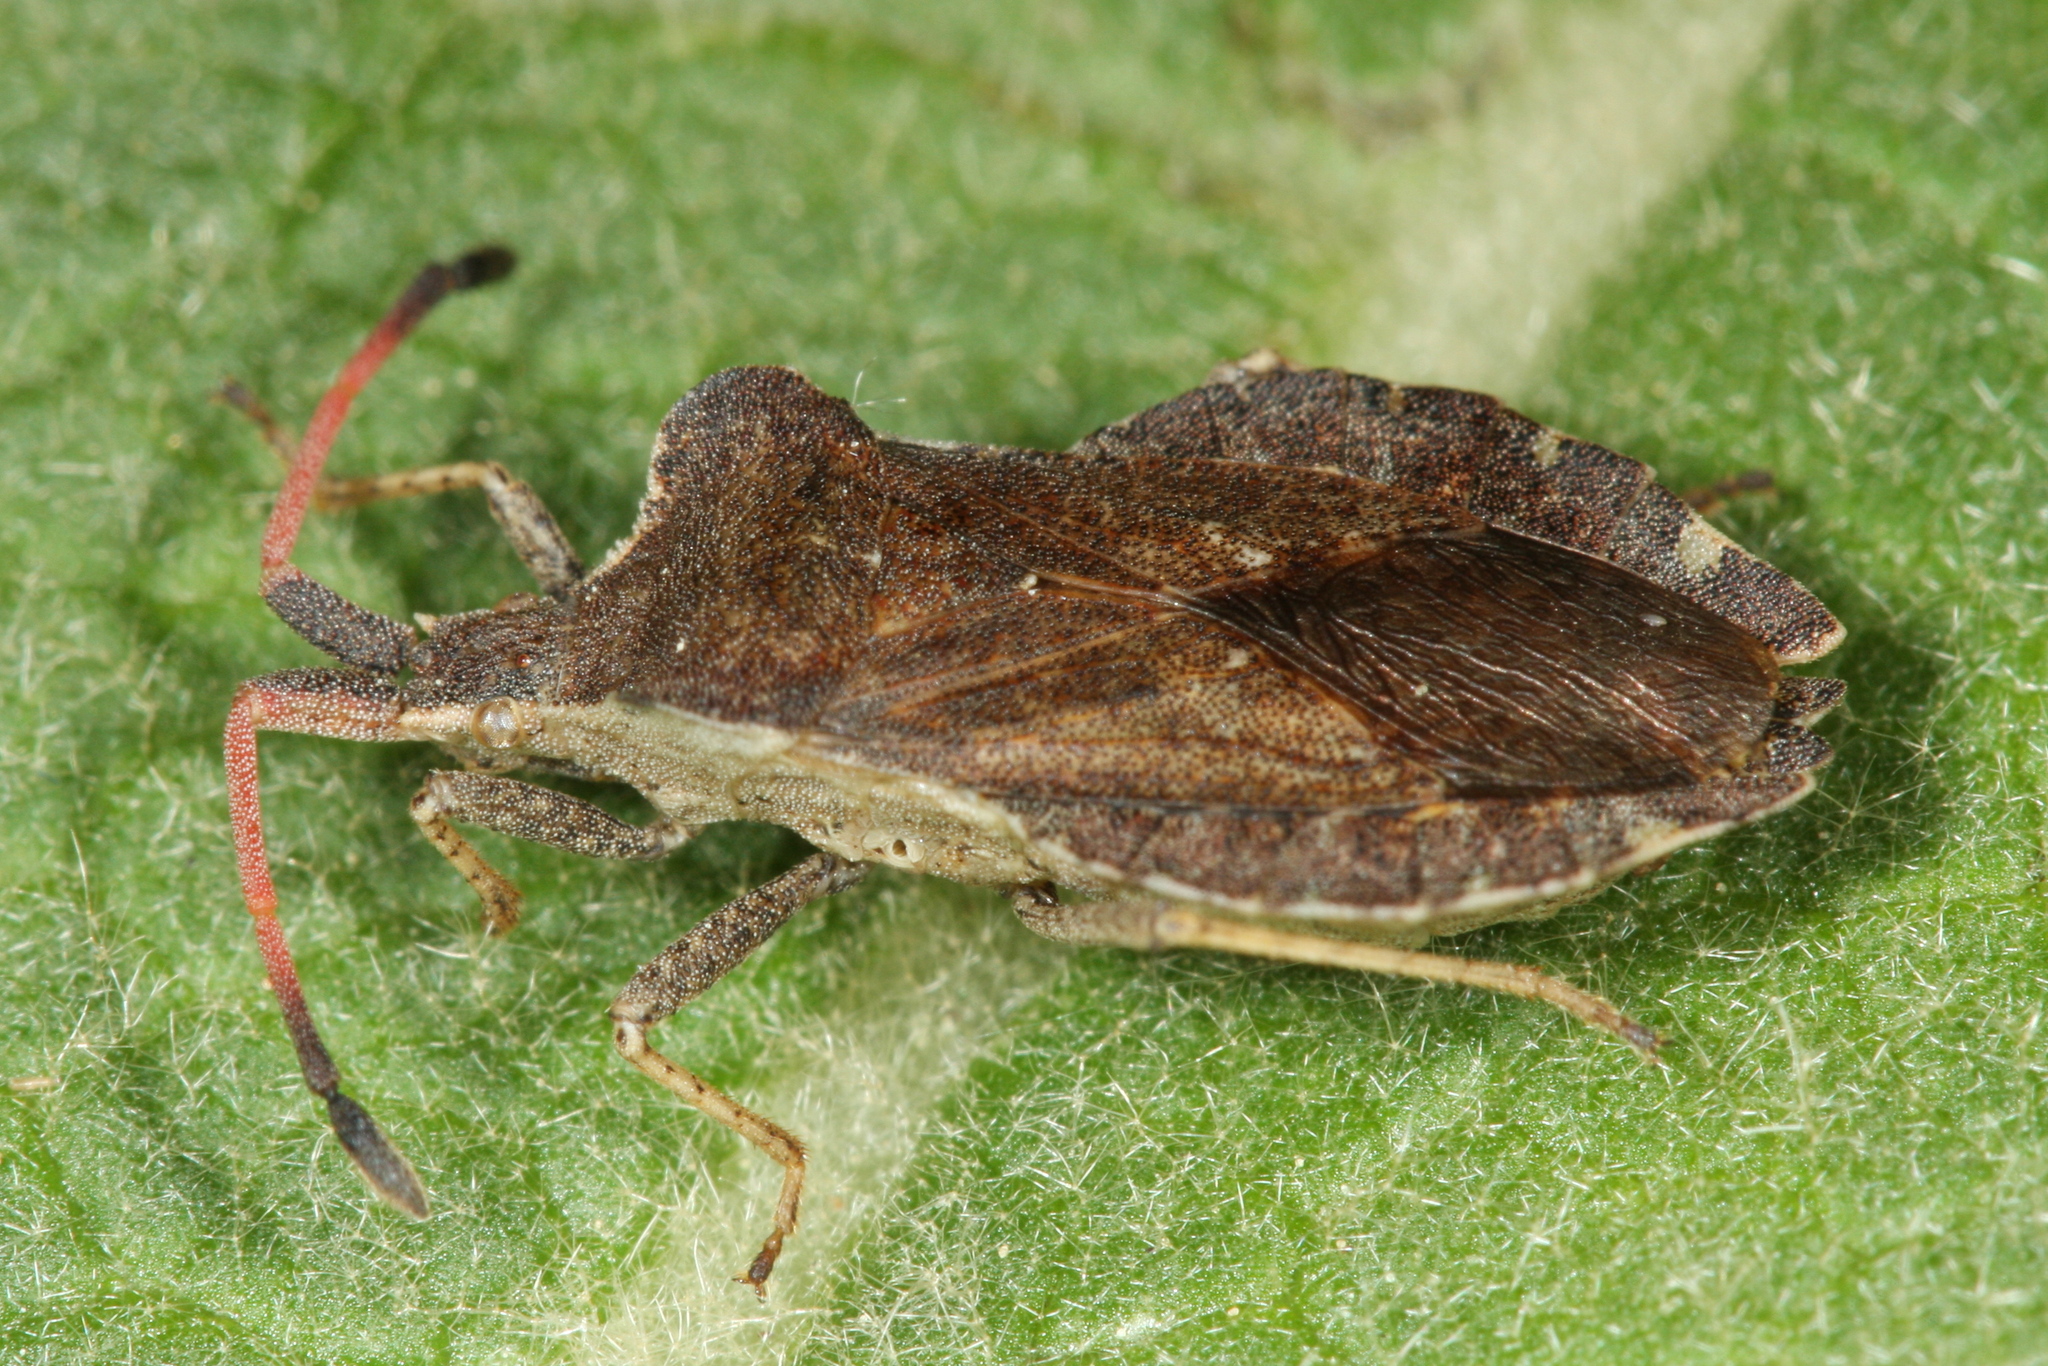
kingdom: Animalia
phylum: Arthropoda
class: Insecta
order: Hemiptera
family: Coreidae
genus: Enoplops
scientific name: Enoplops scapha
